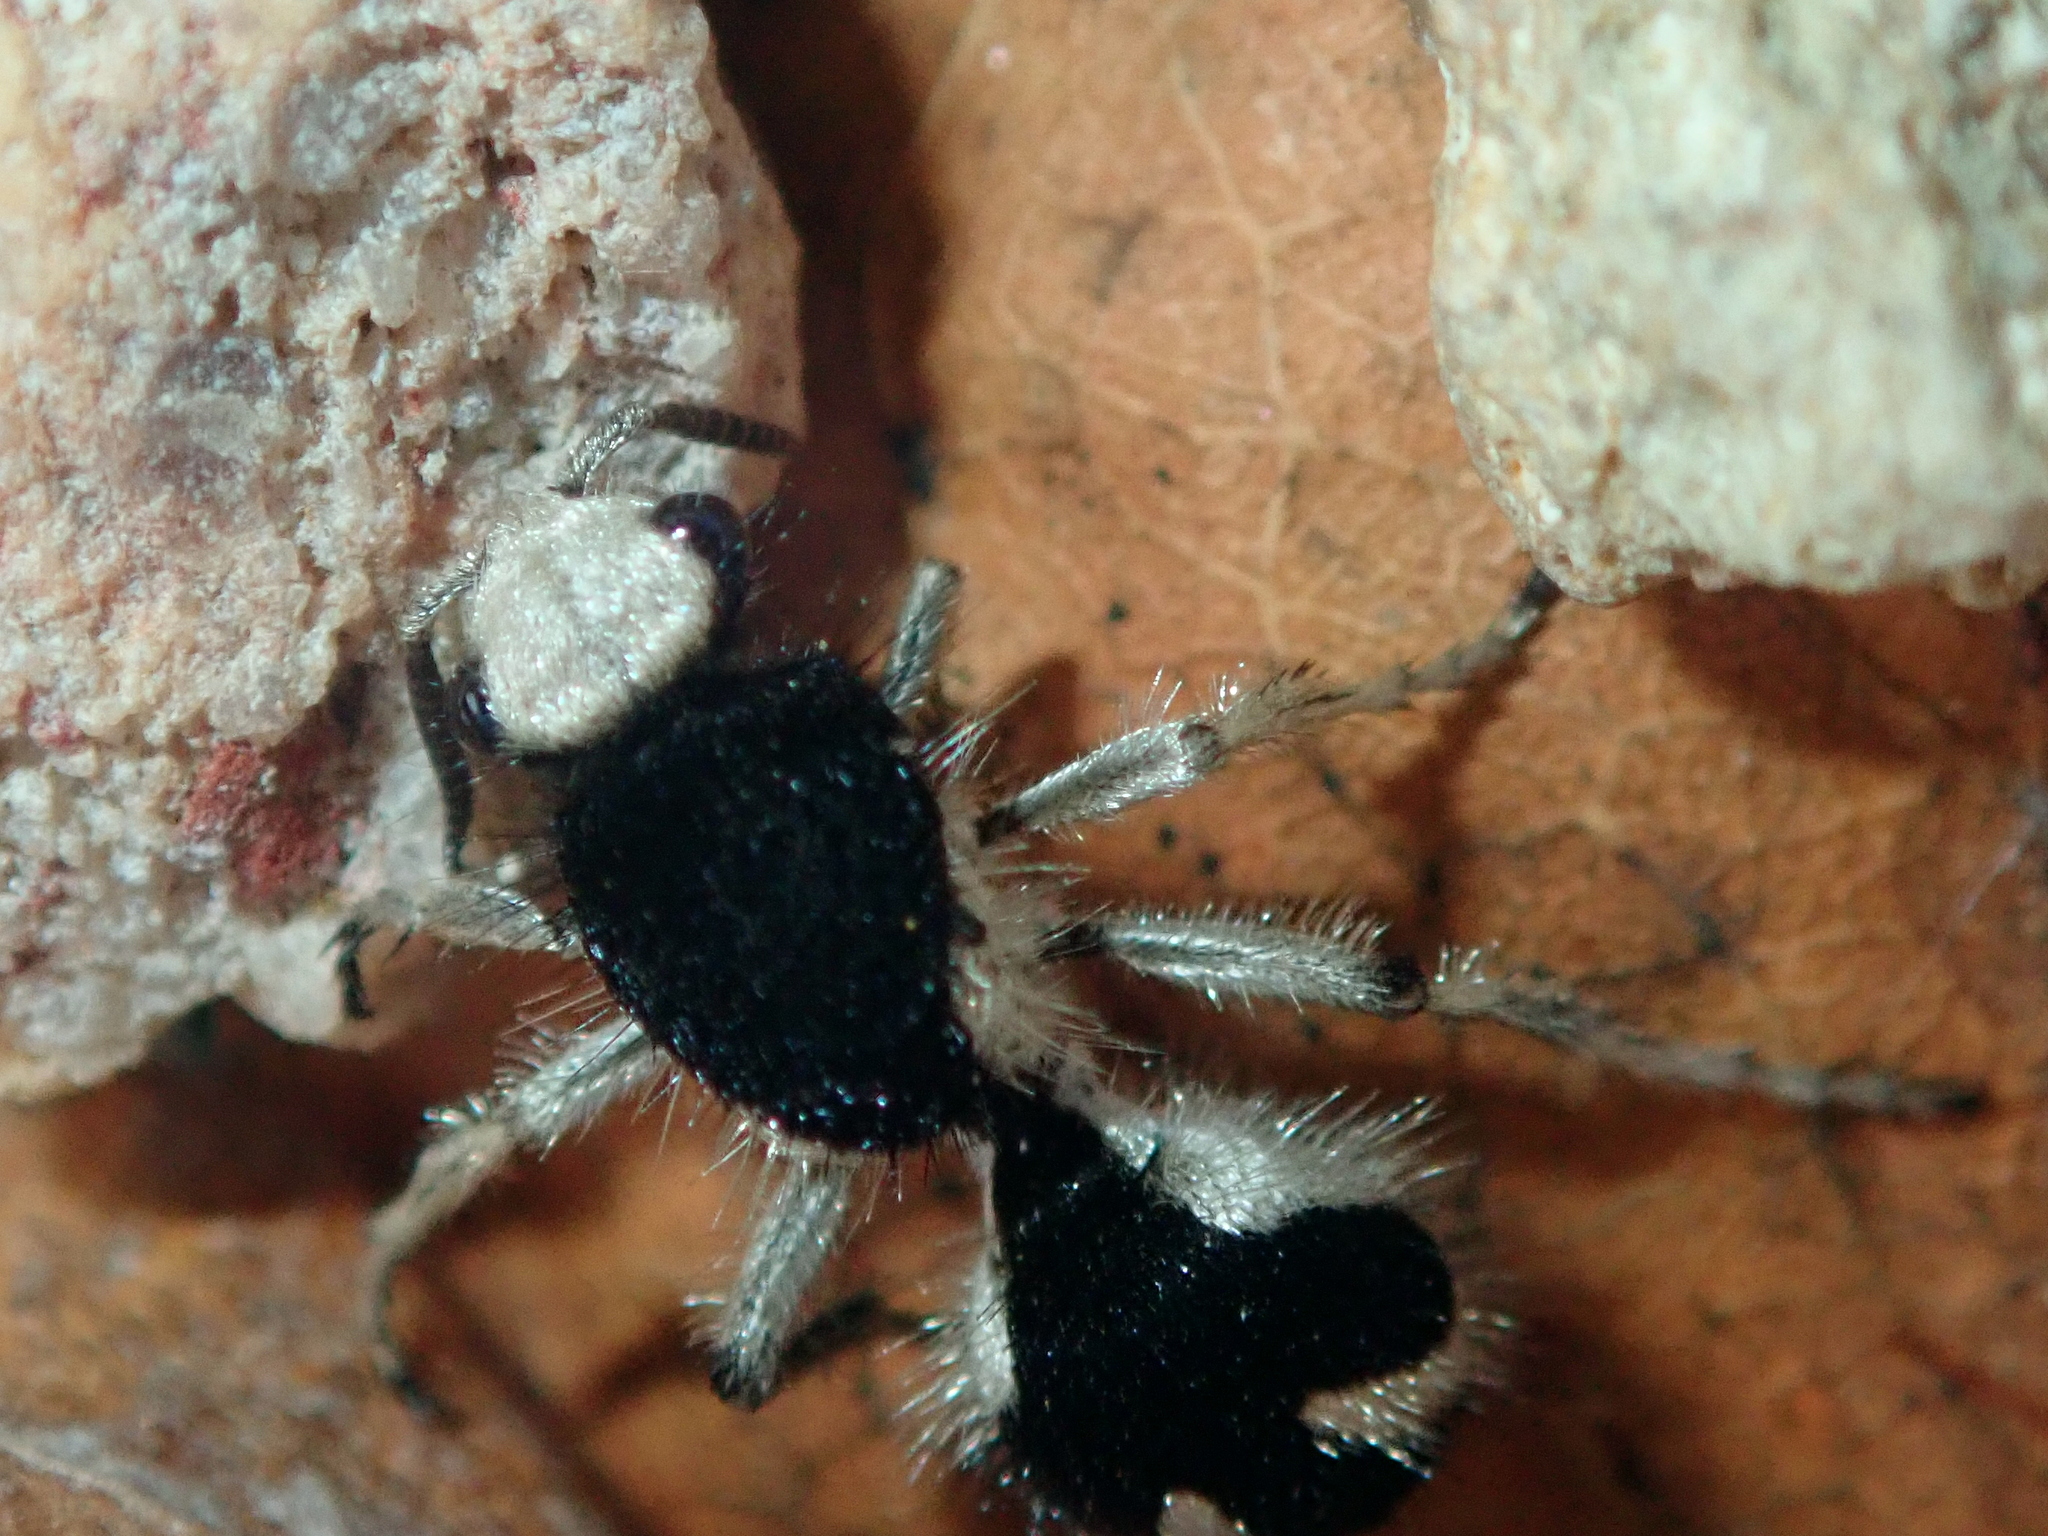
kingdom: Animalia
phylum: Arthropoda
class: Insecta
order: Hymenoptera
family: Mutillidae
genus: Traumatomutilla
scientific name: Traumatomutilla bifurca
